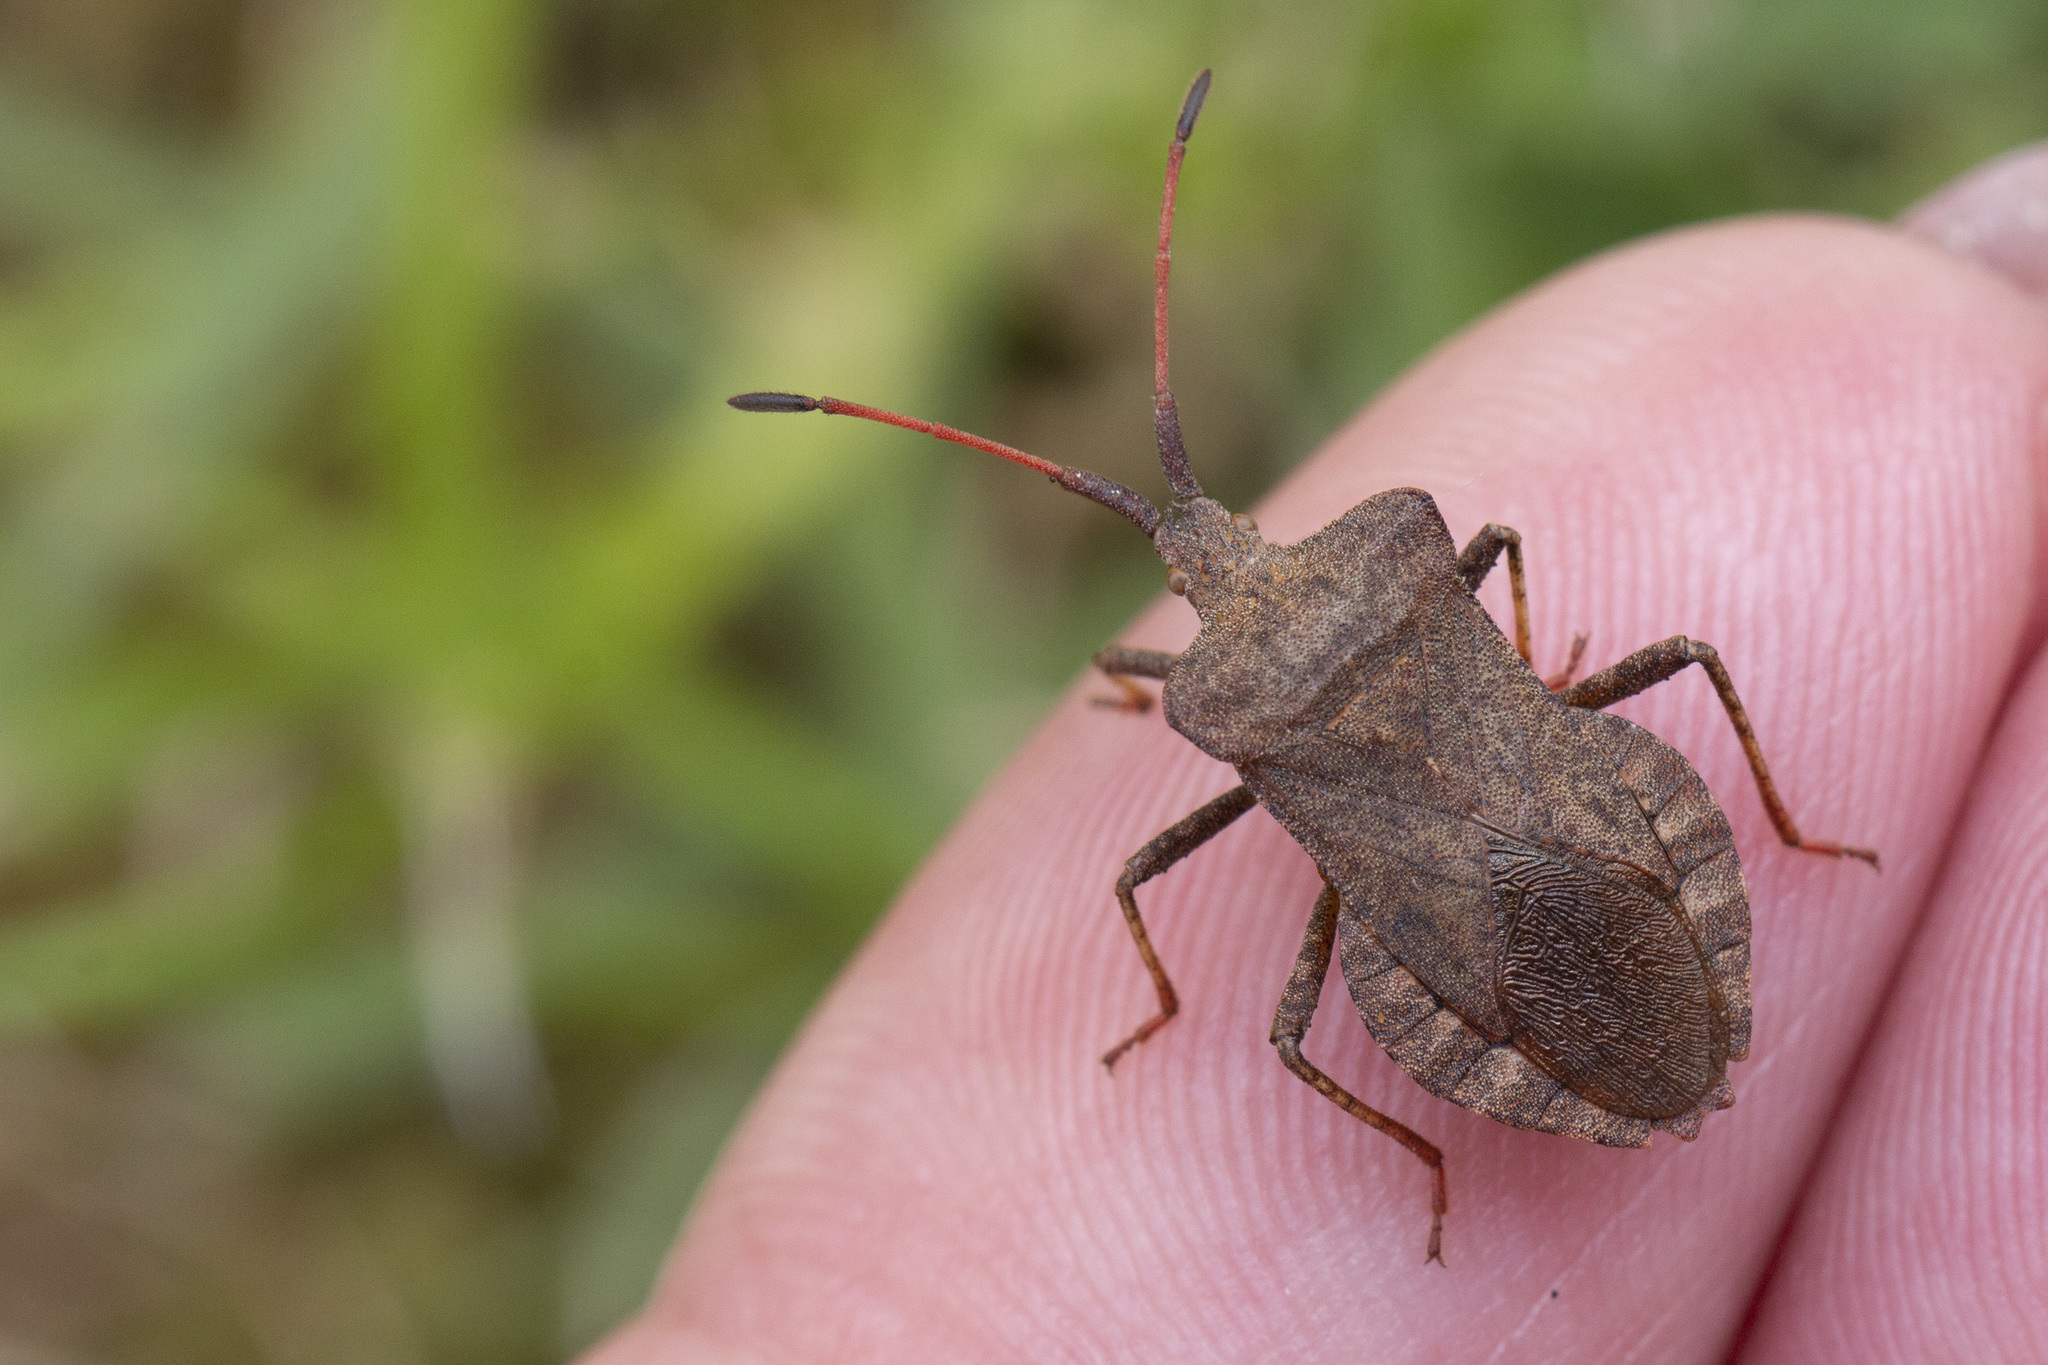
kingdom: Animalia
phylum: Arthropoda
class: Insecta
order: Hemiptera
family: Coreidae
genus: Coreus
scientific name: Coreus marginatus
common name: Dock bug
